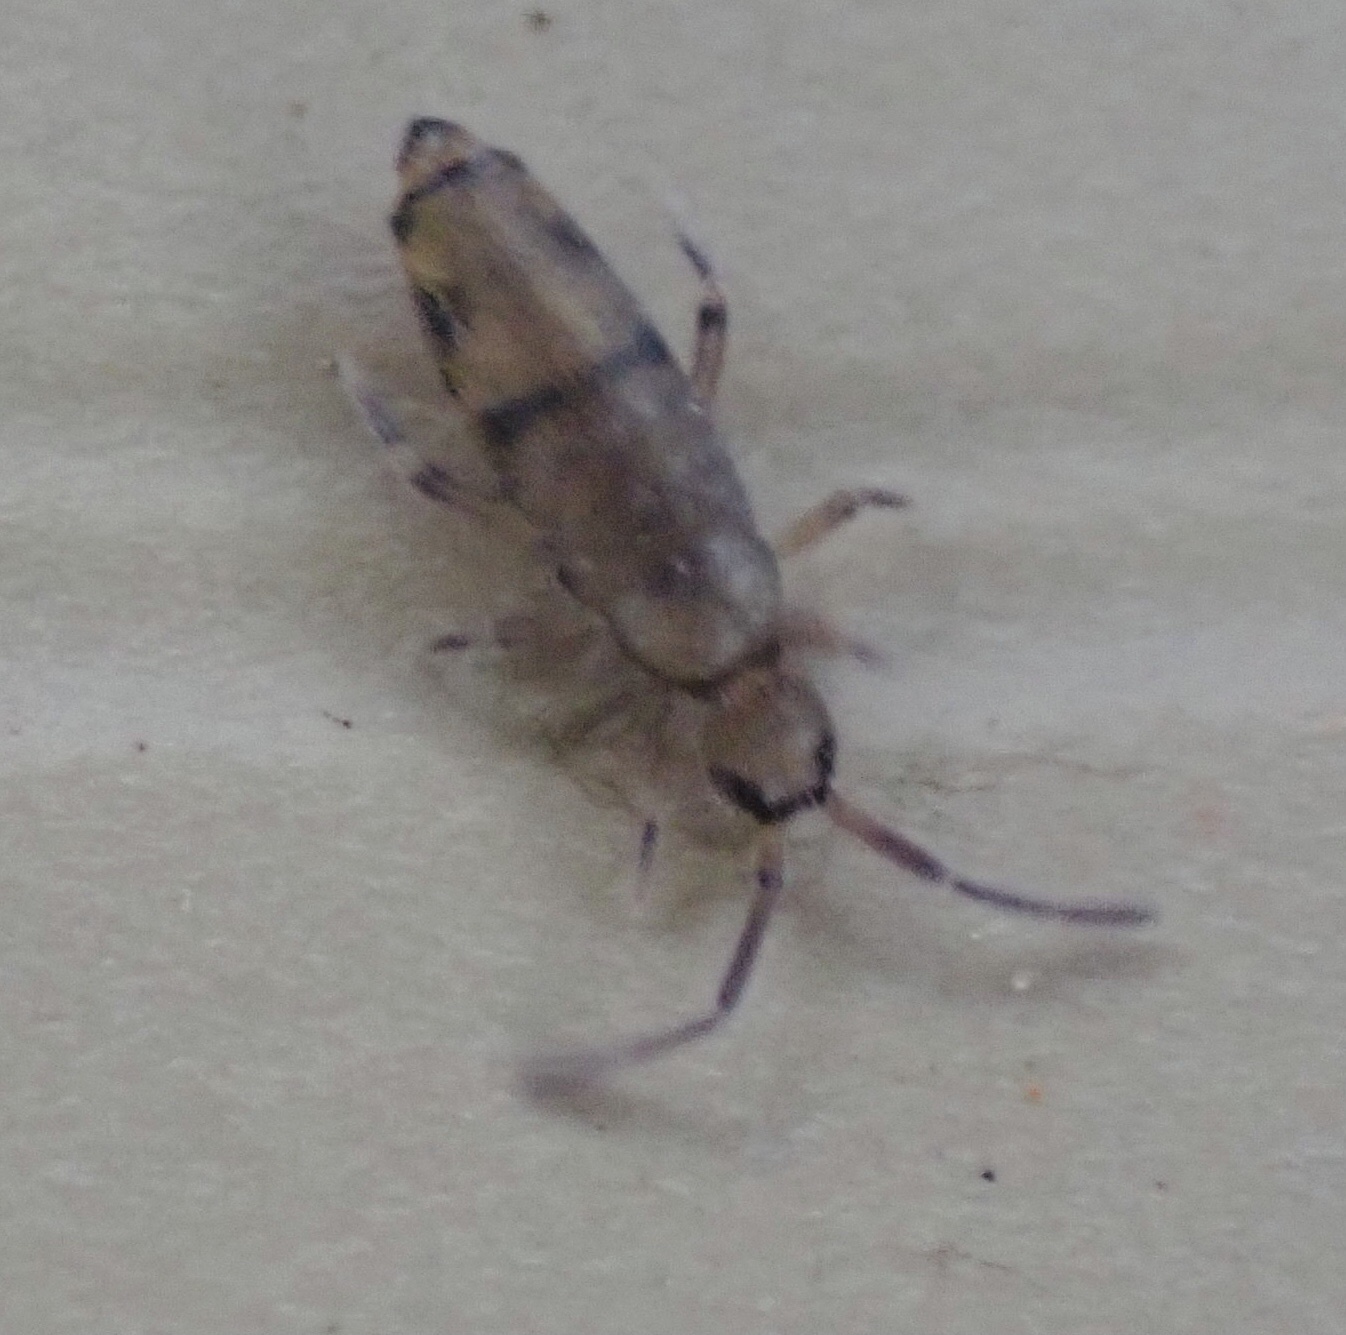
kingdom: Animalia
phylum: Arthropoda
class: Collembola
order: Entomobryomorpha
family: Entomobryidae
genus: Willowsia
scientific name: Willowsia nigromaculata
